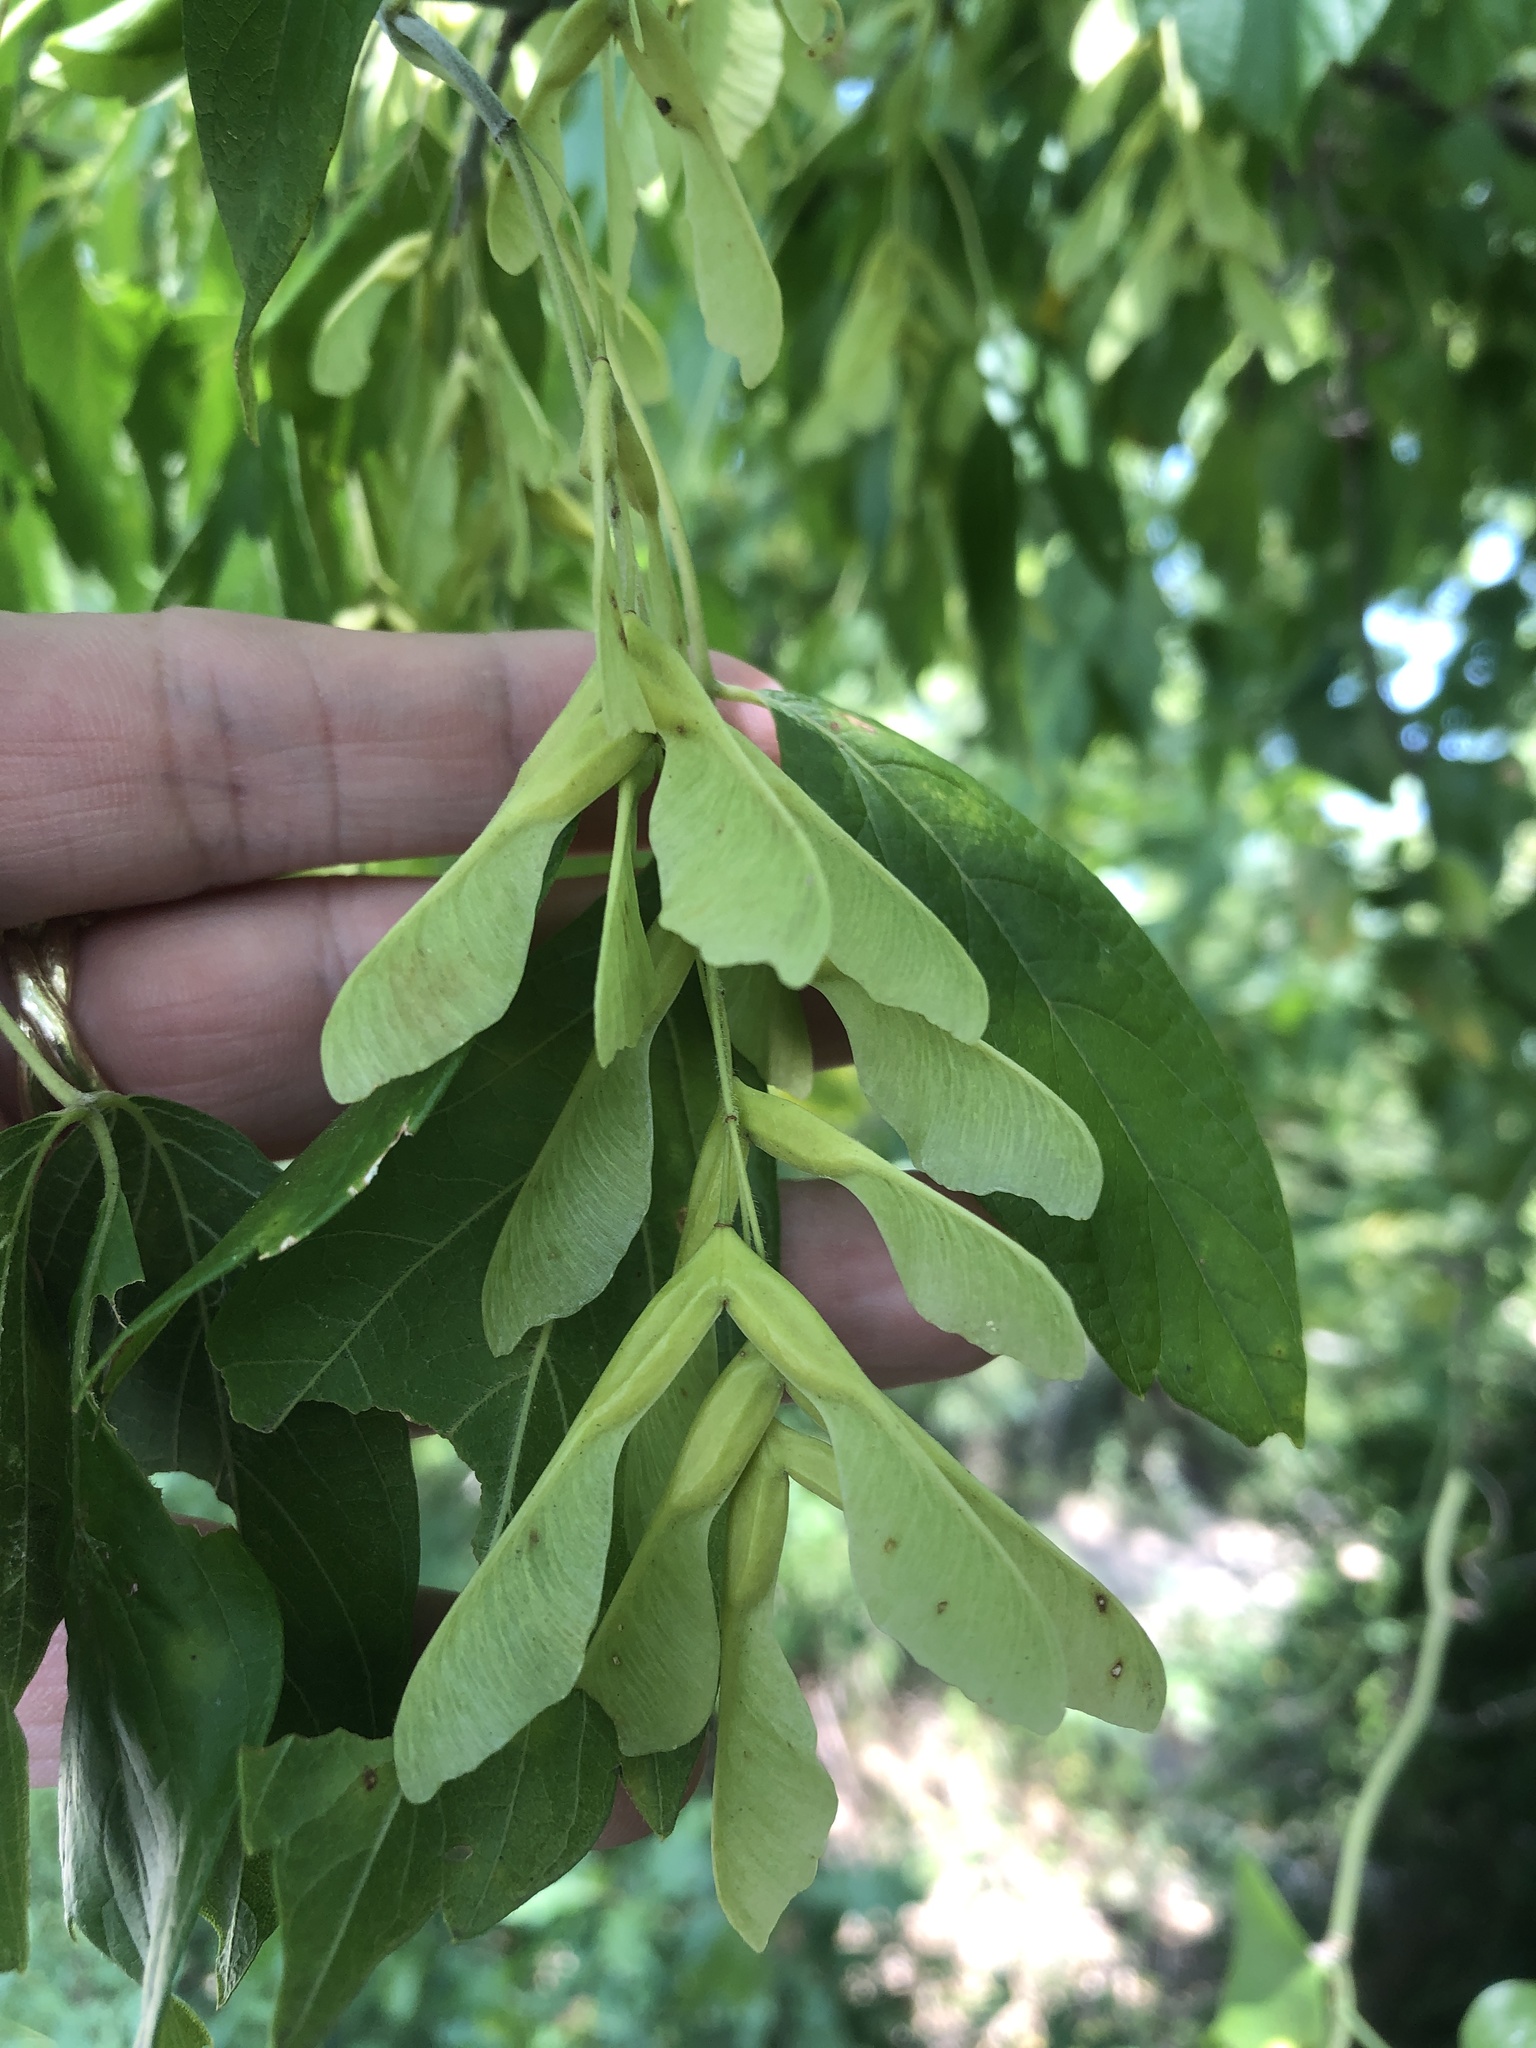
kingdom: Plantae
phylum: Tracheophyta
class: Magnoliopsida
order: Sapindales
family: Sapindaceae
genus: Acer
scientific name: Acer negundo
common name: Ashleaf maple
